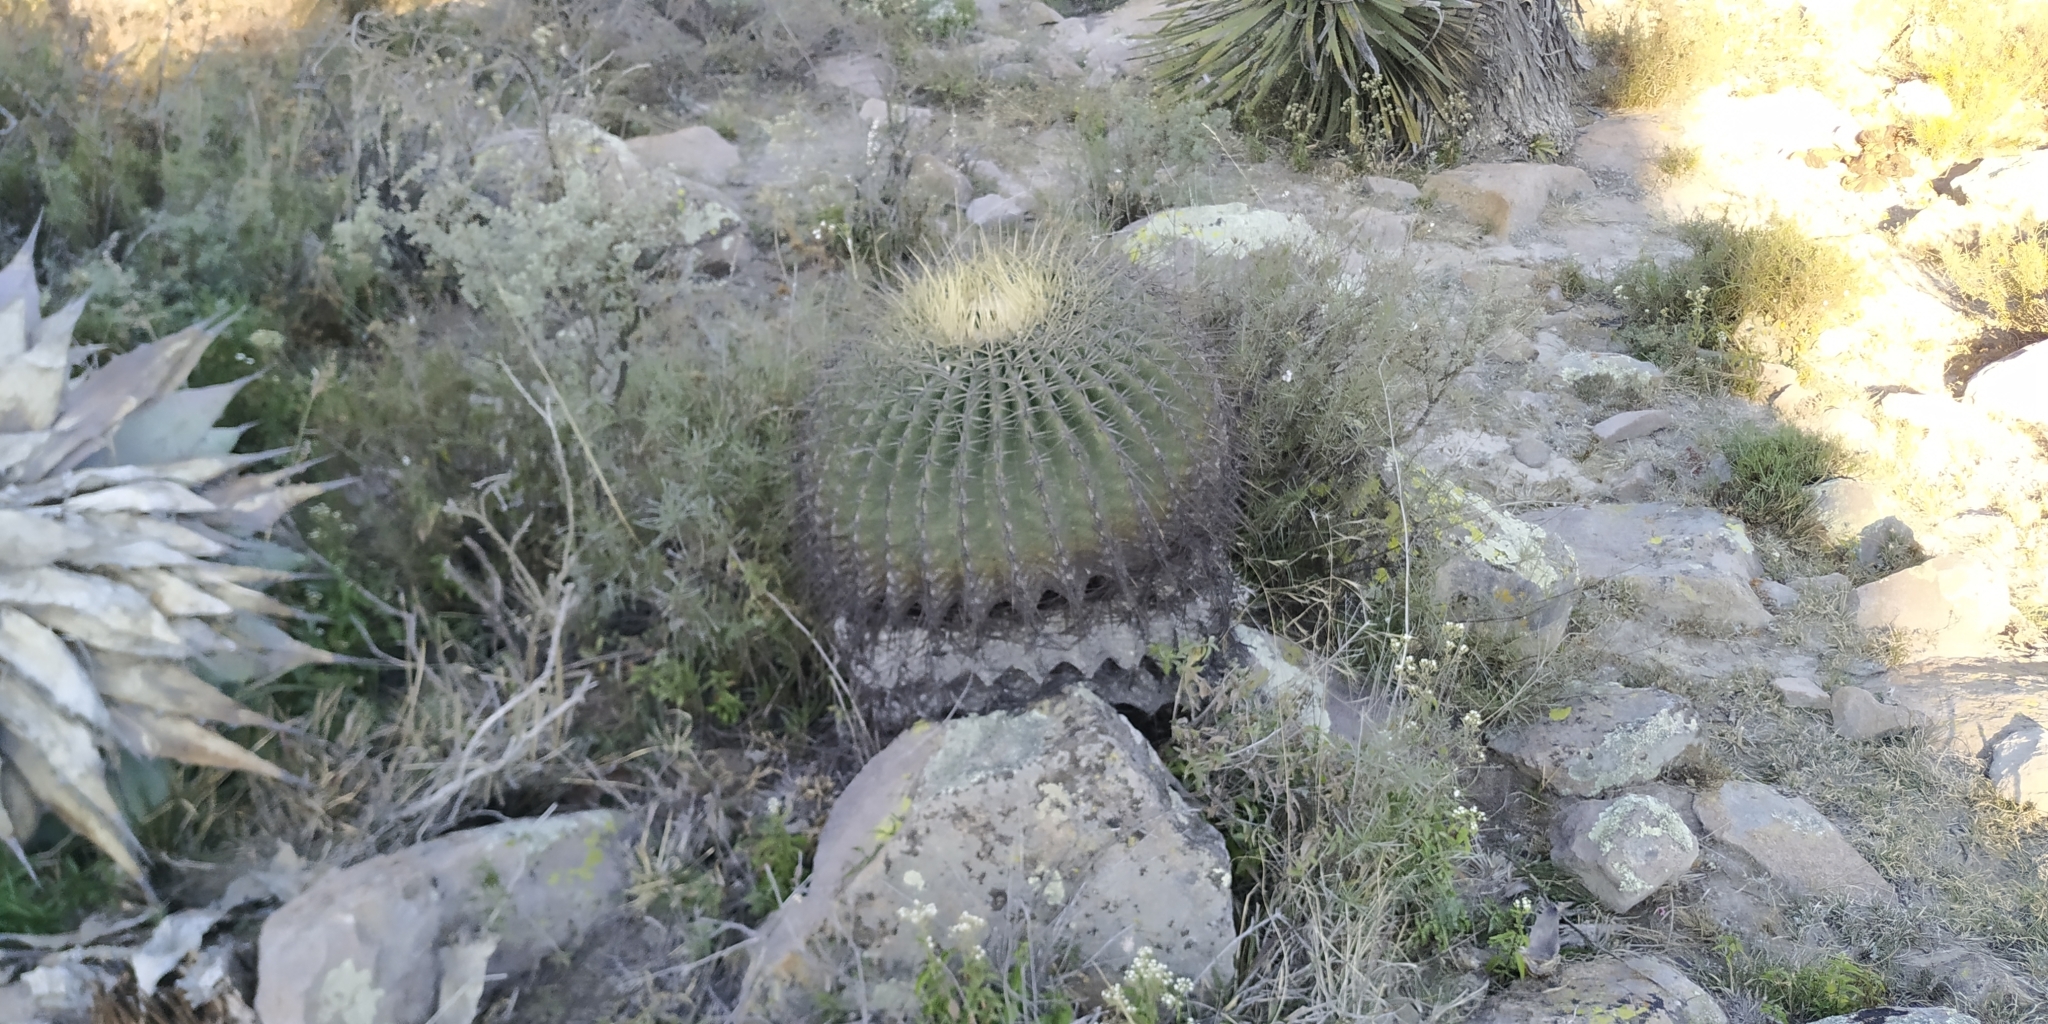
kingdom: Plantae
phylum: Tracheophyta
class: Magnoliopsida
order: Caryophyllales
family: Cactaceae
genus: Bisnaga
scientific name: Bisnaga histrix
